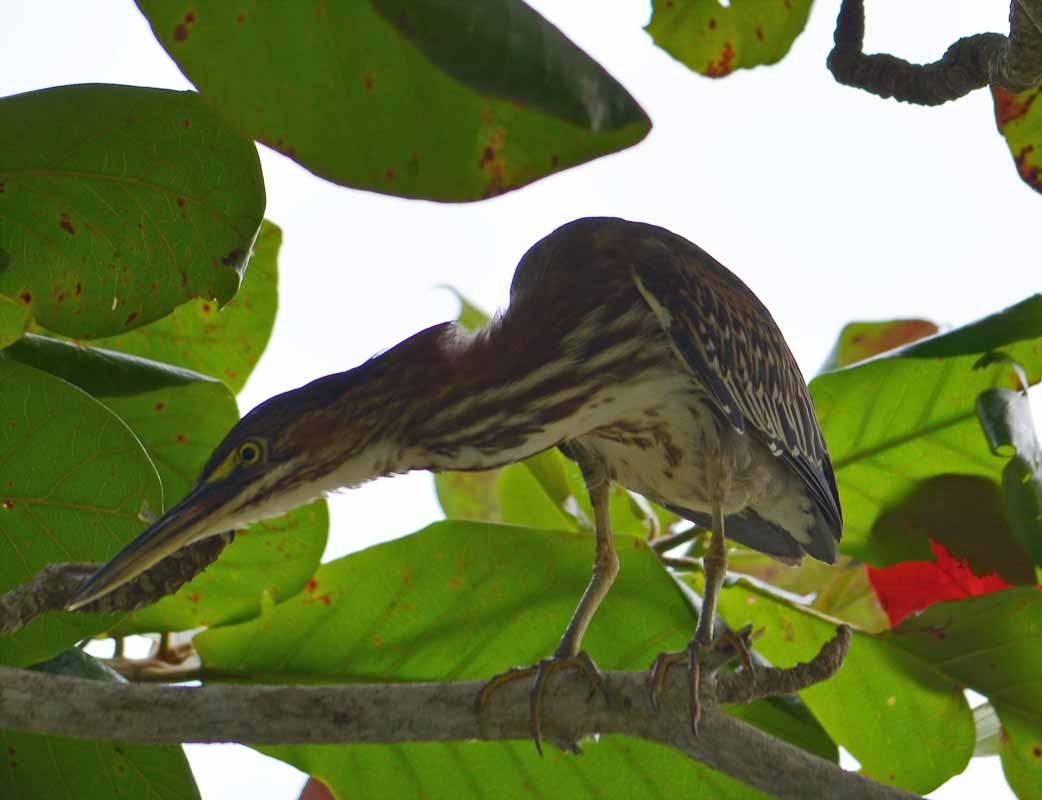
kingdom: Animalia
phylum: Chordata
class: Aves
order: Pelecaniformes
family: Ardeidae
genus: Butorides
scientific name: Butorides virescens
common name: Green heron
